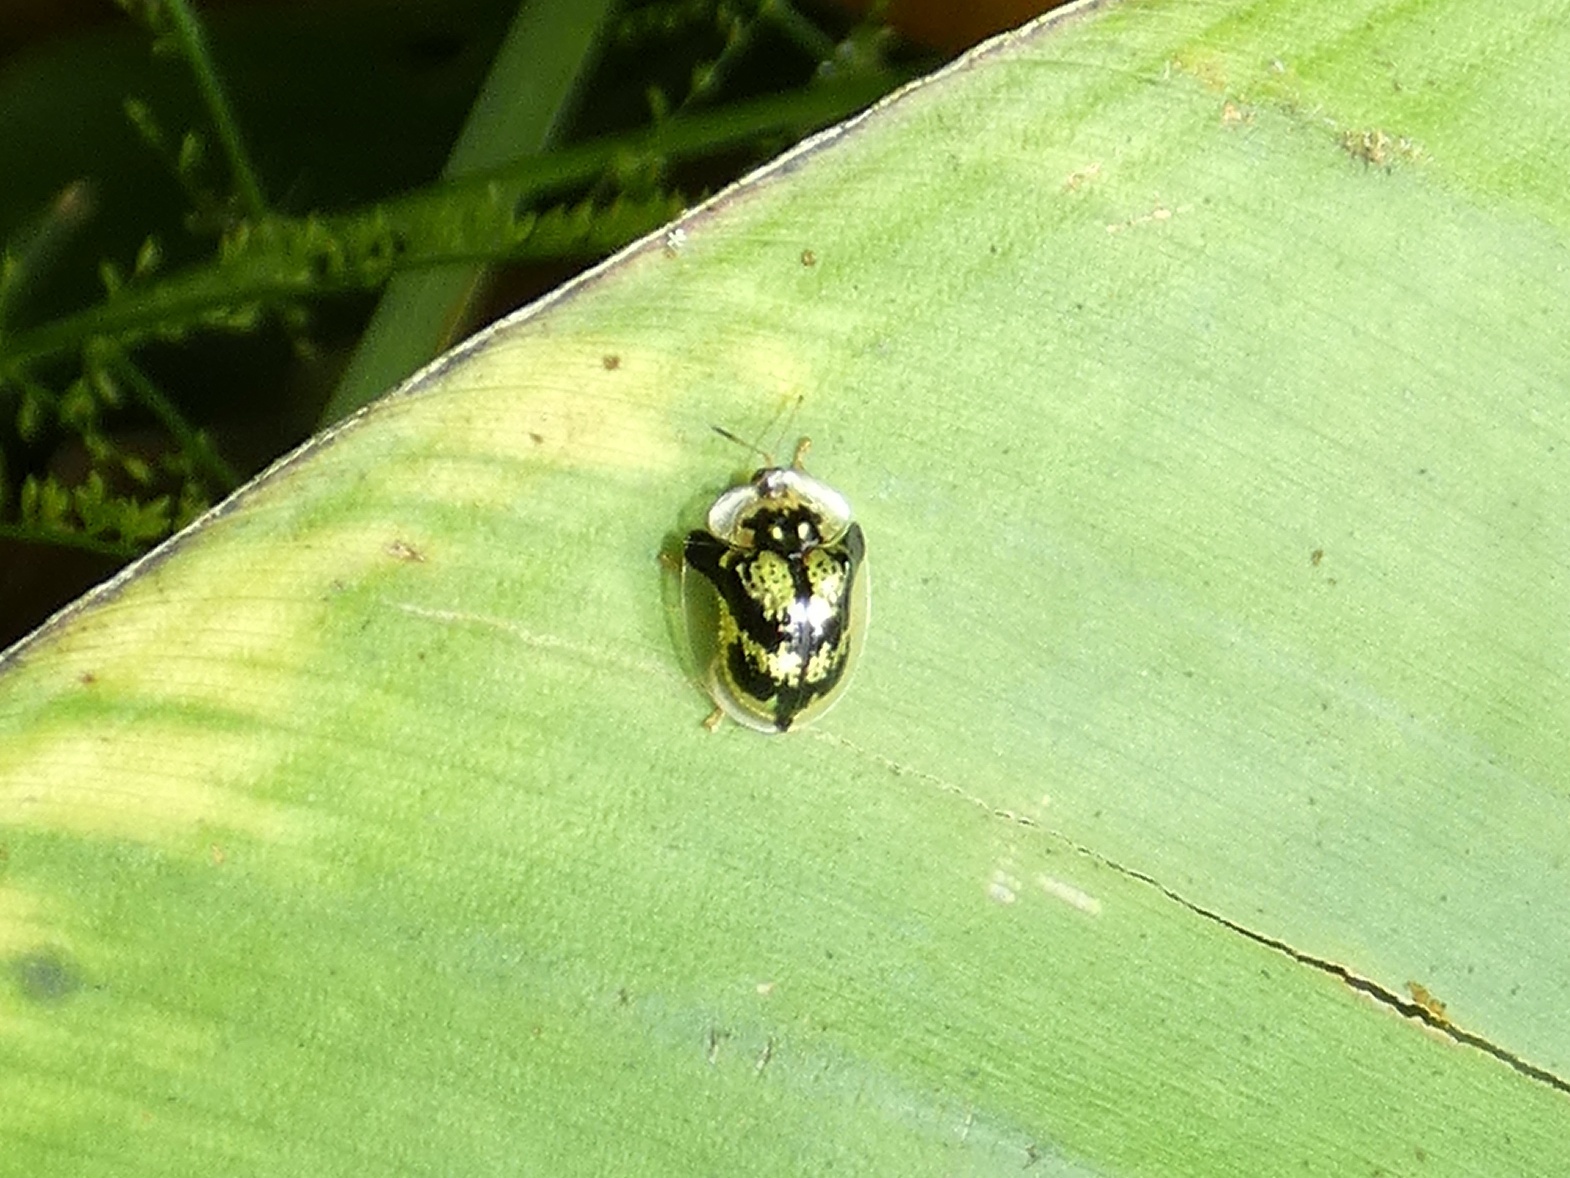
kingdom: Animalia
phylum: Arthropoda
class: Insecta
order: Coleoptera
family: Chrysomelidae
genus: Deloyala
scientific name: Deloyala insubida
